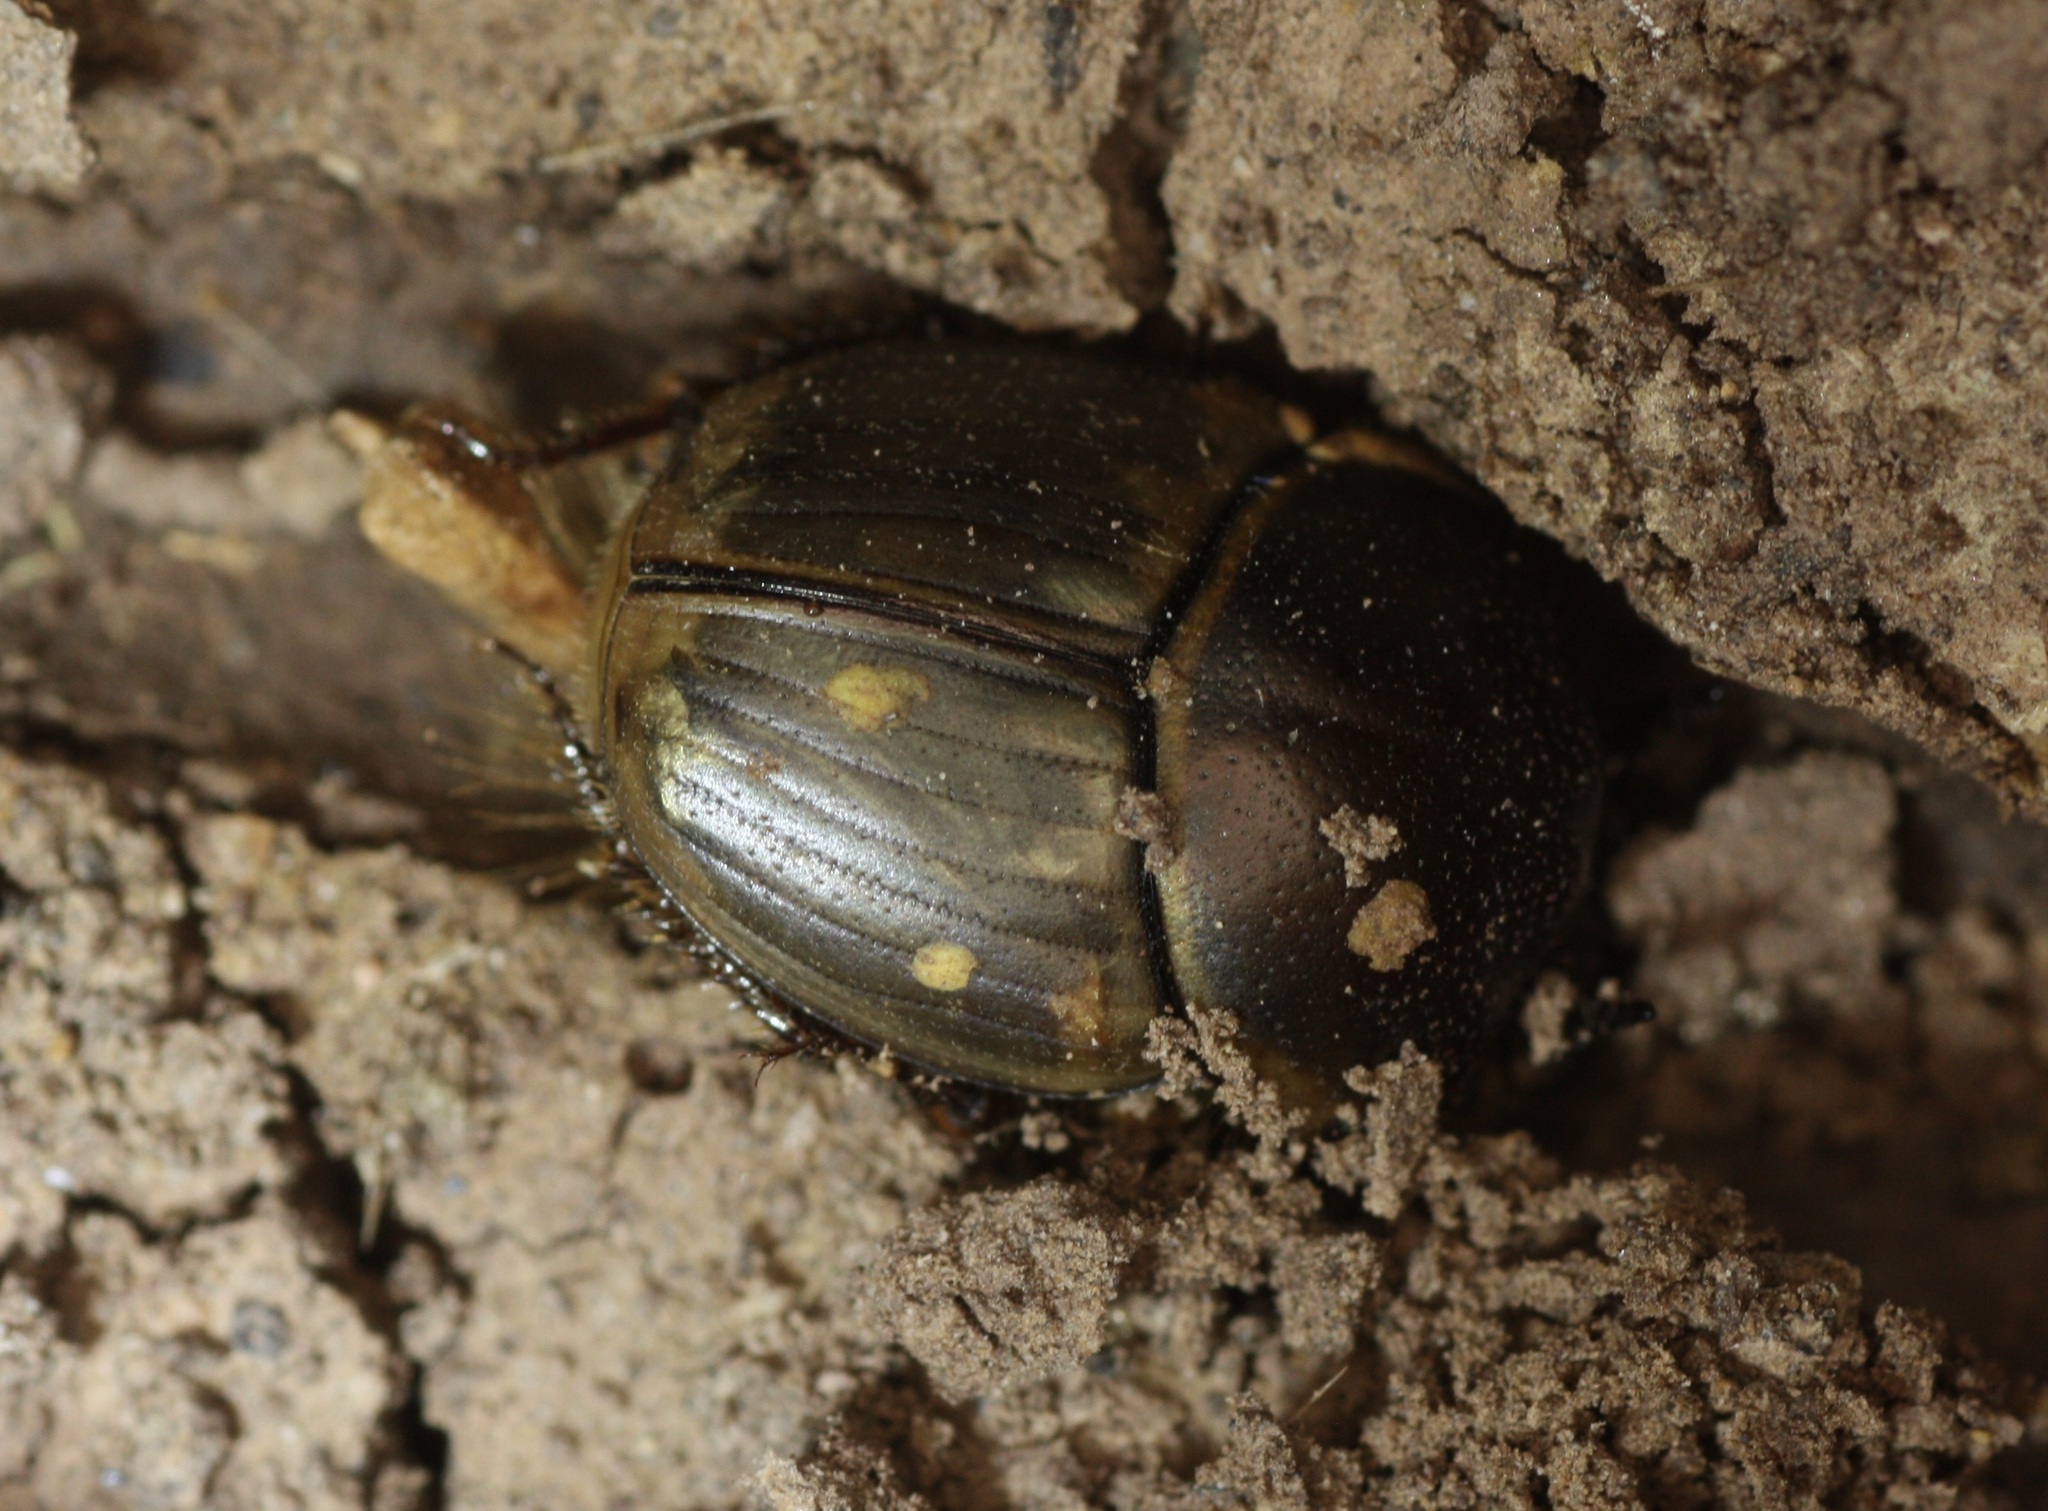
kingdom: Animalia
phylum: Arthropoda
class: Insecta
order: Coleoptera
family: Scarabaeidae
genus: Digitonthophagus
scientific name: Digitonthophagus gazella
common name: Brown dung beetle
